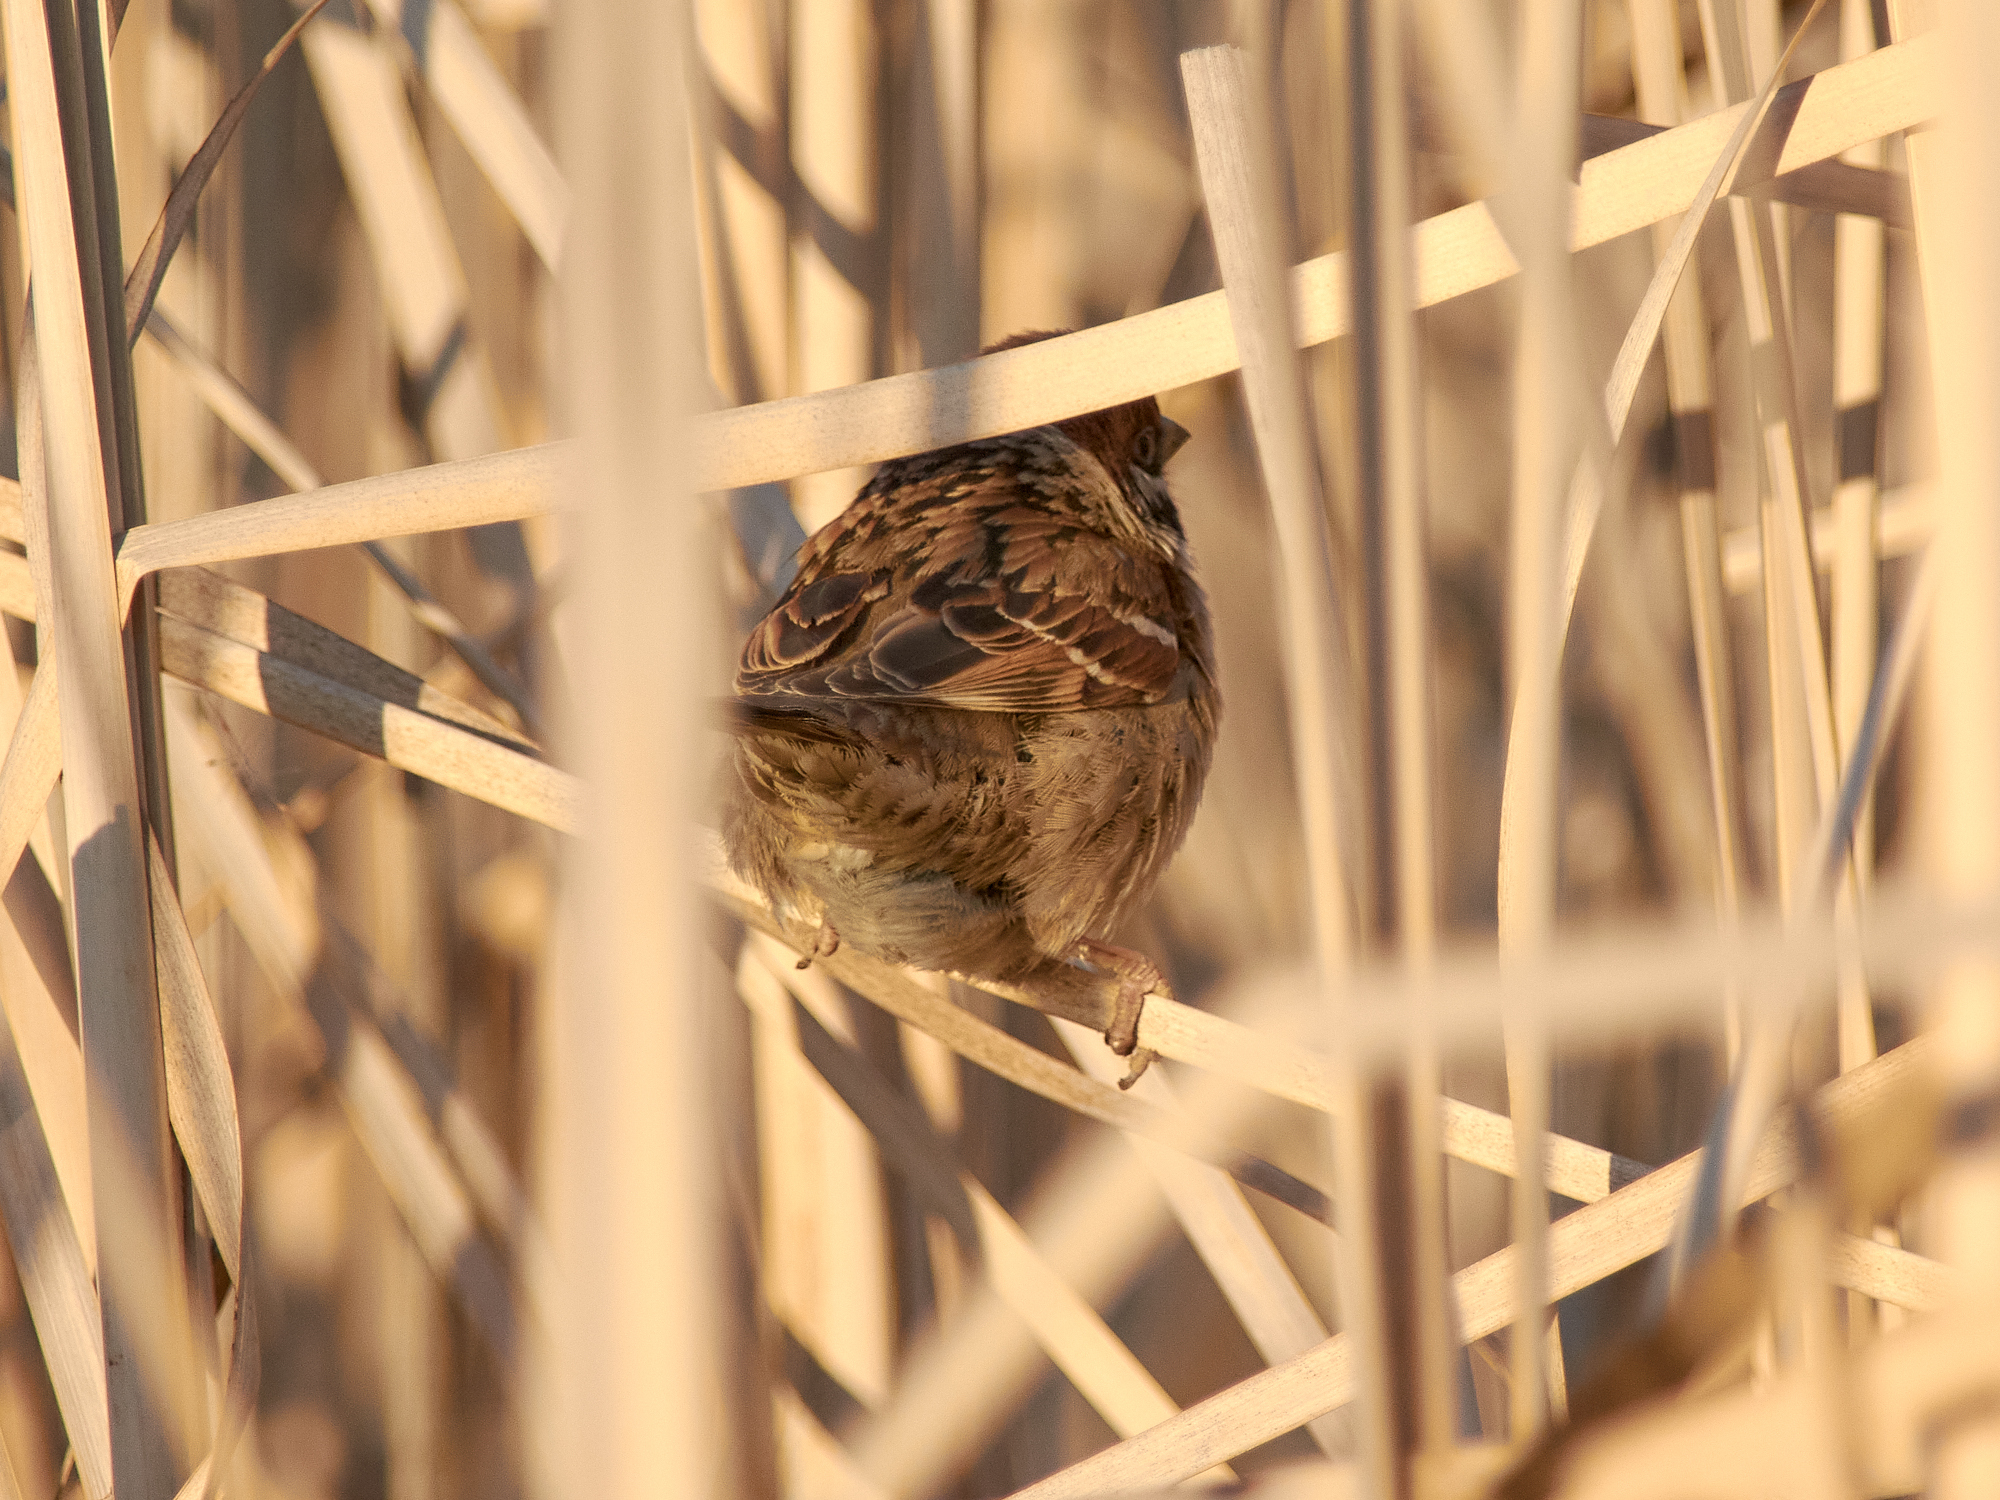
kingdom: Animalia
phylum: Chordata
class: Aves
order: Passeriformes
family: Passeridae
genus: Passer
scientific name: Passer montanus
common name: Eurasian tree sparrow
